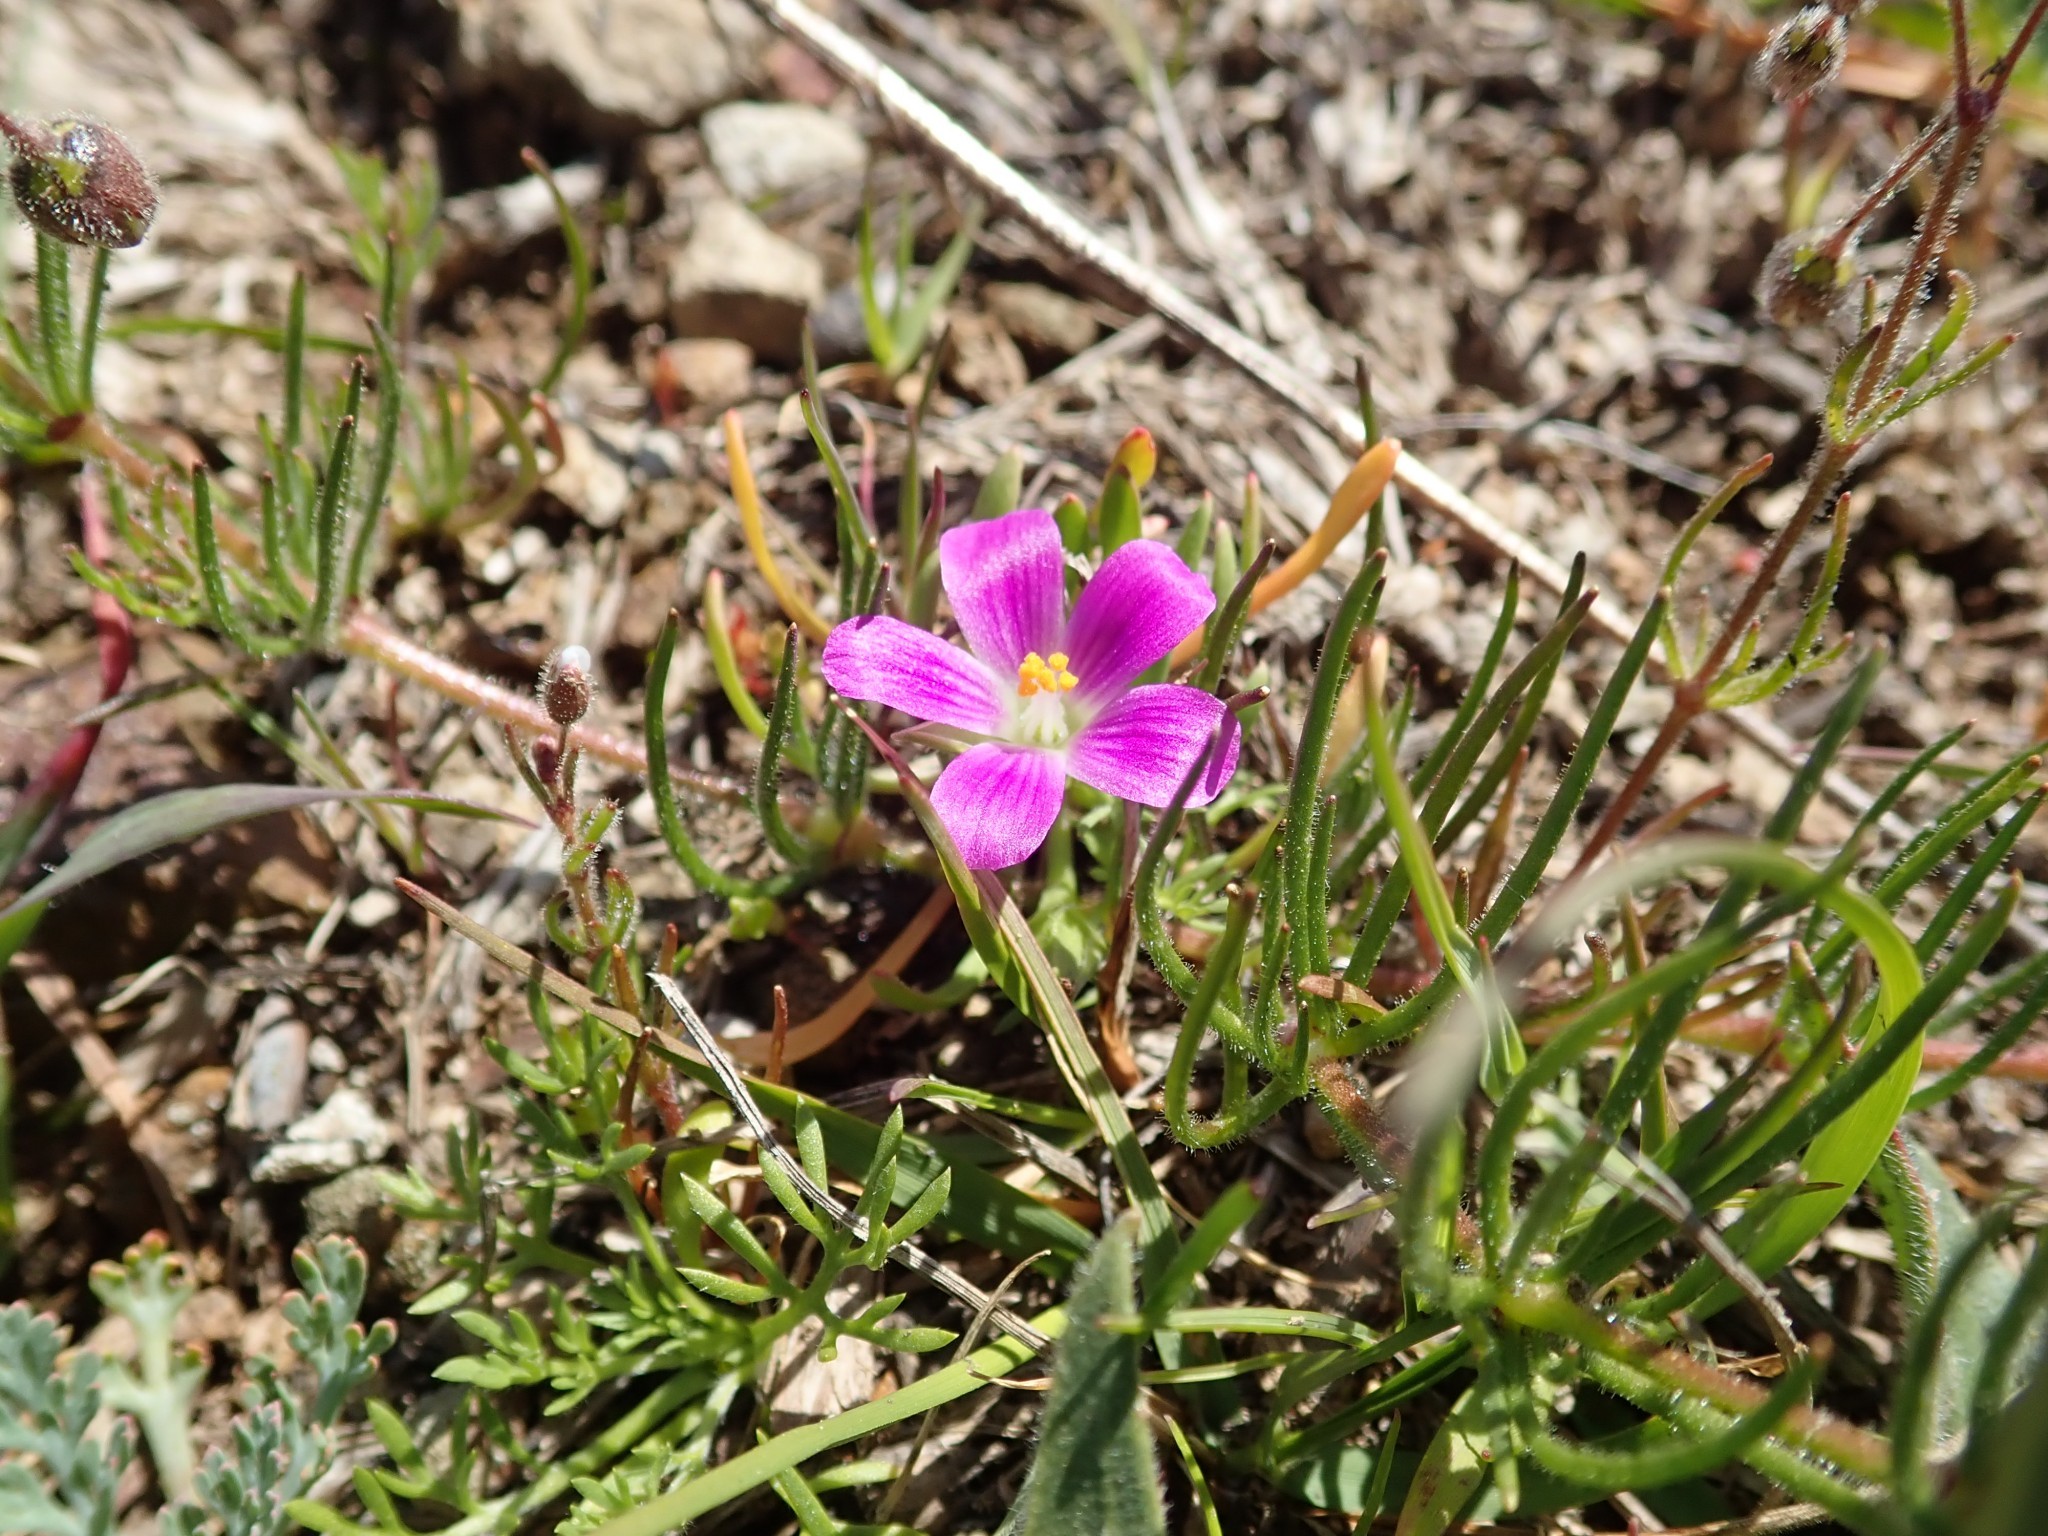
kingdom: Plantae
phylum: Tracheophyta
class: Magnoliopsida
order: Caryophyllales
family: Montiaceae
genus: Calandrinia
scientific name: Calandrinia menziesii
